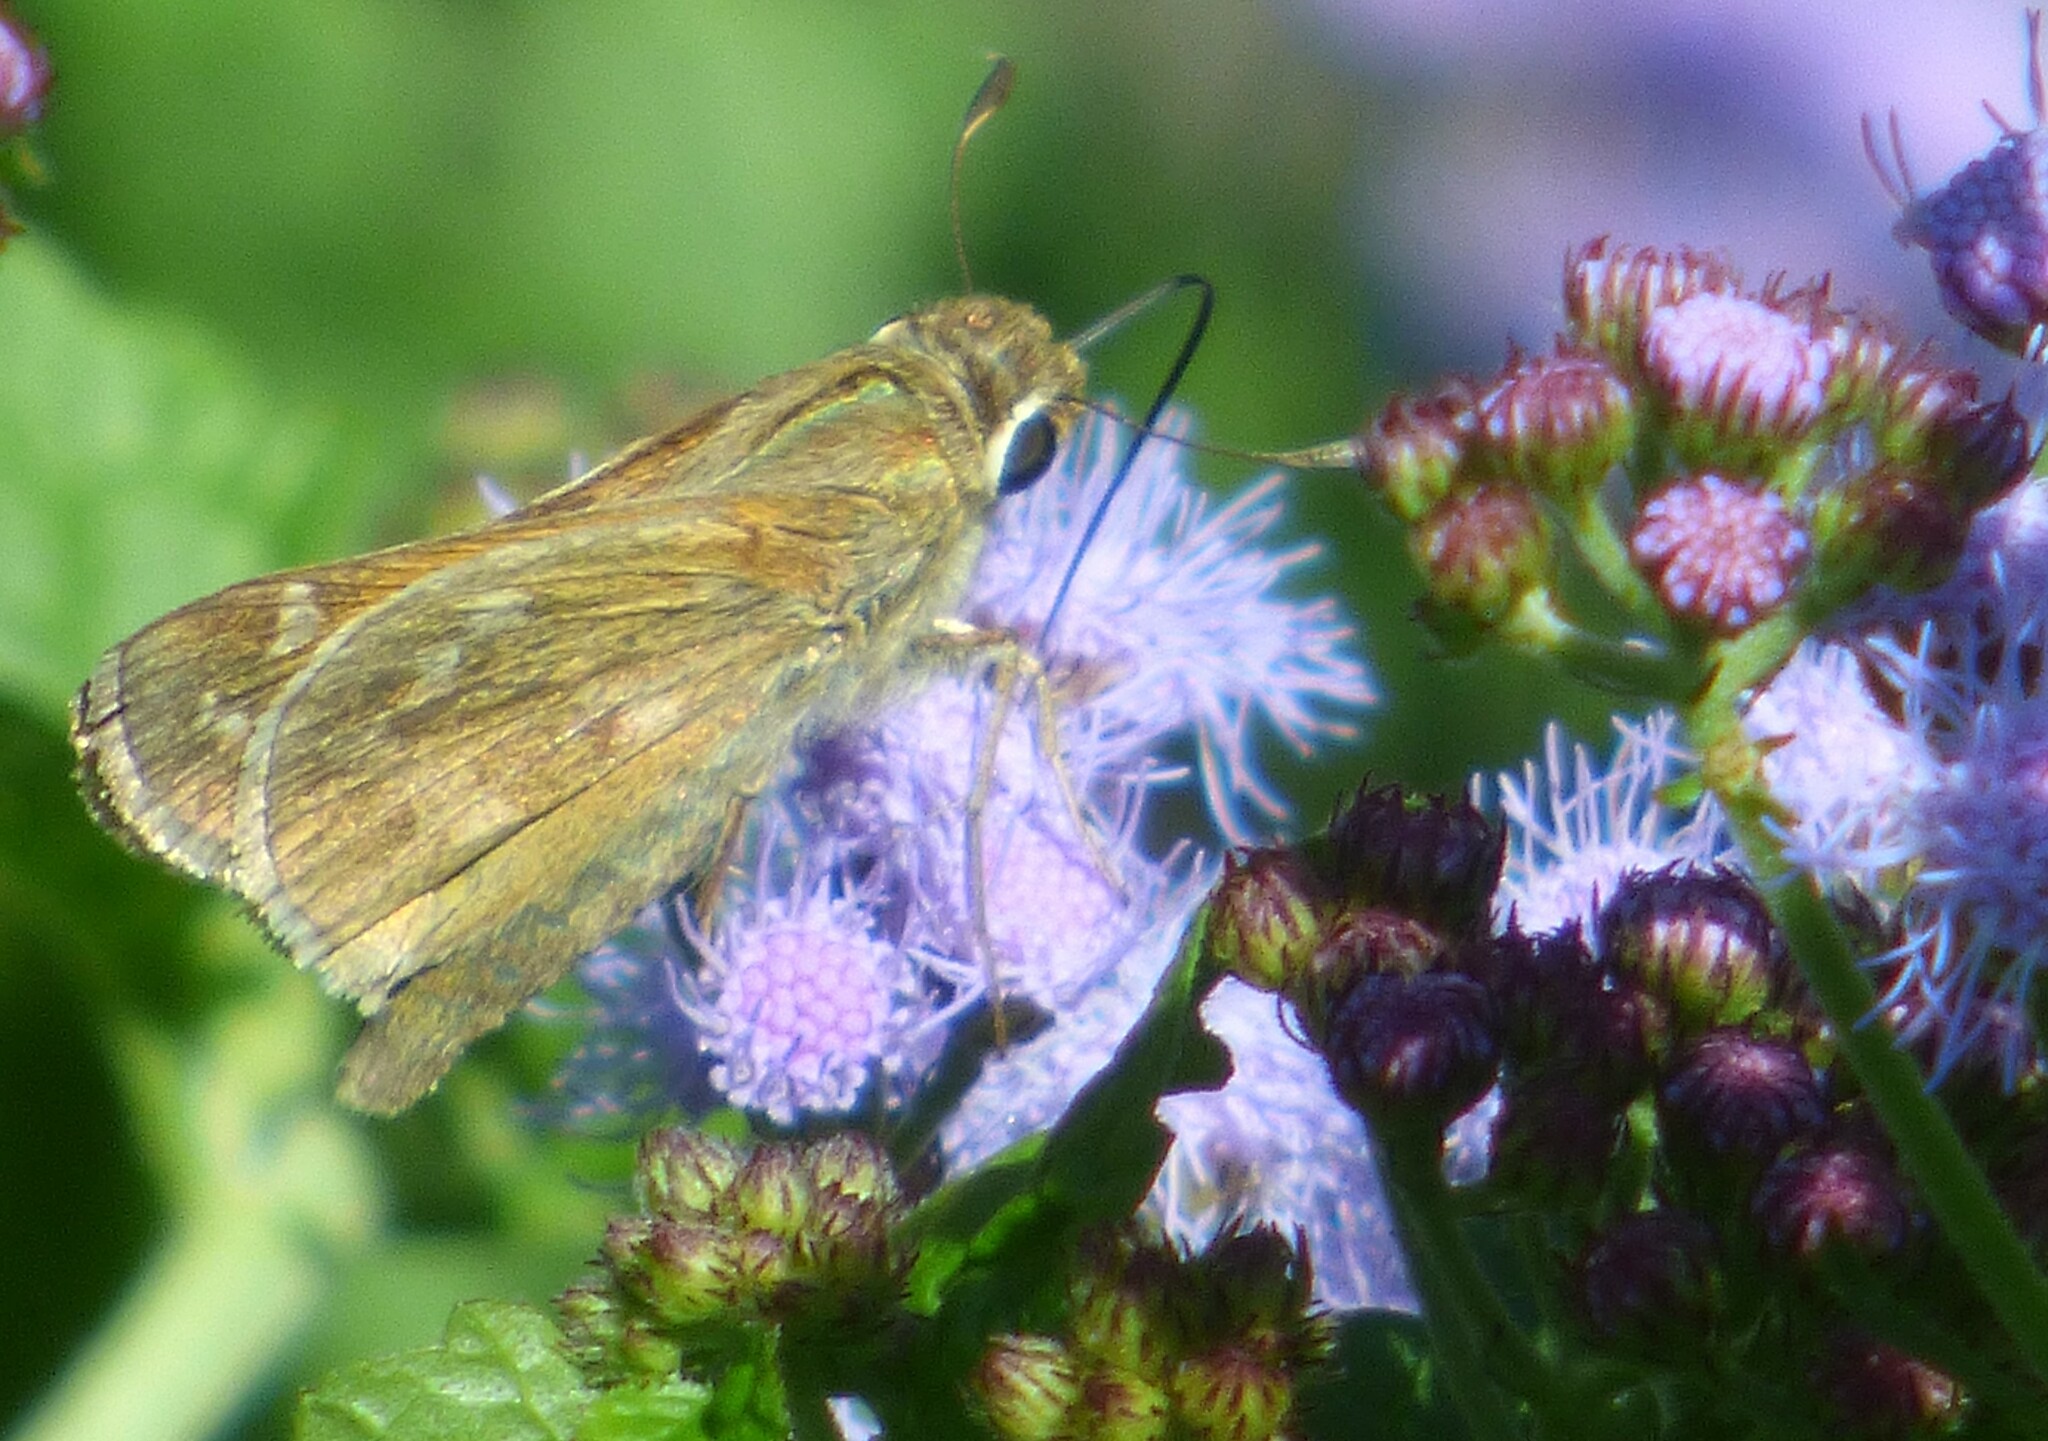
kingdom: Animalia
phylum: Arthropoda
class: Insecta
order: Lepidoptera
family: Hesperiidae
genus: Atalopedes
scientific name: Atalopedes
